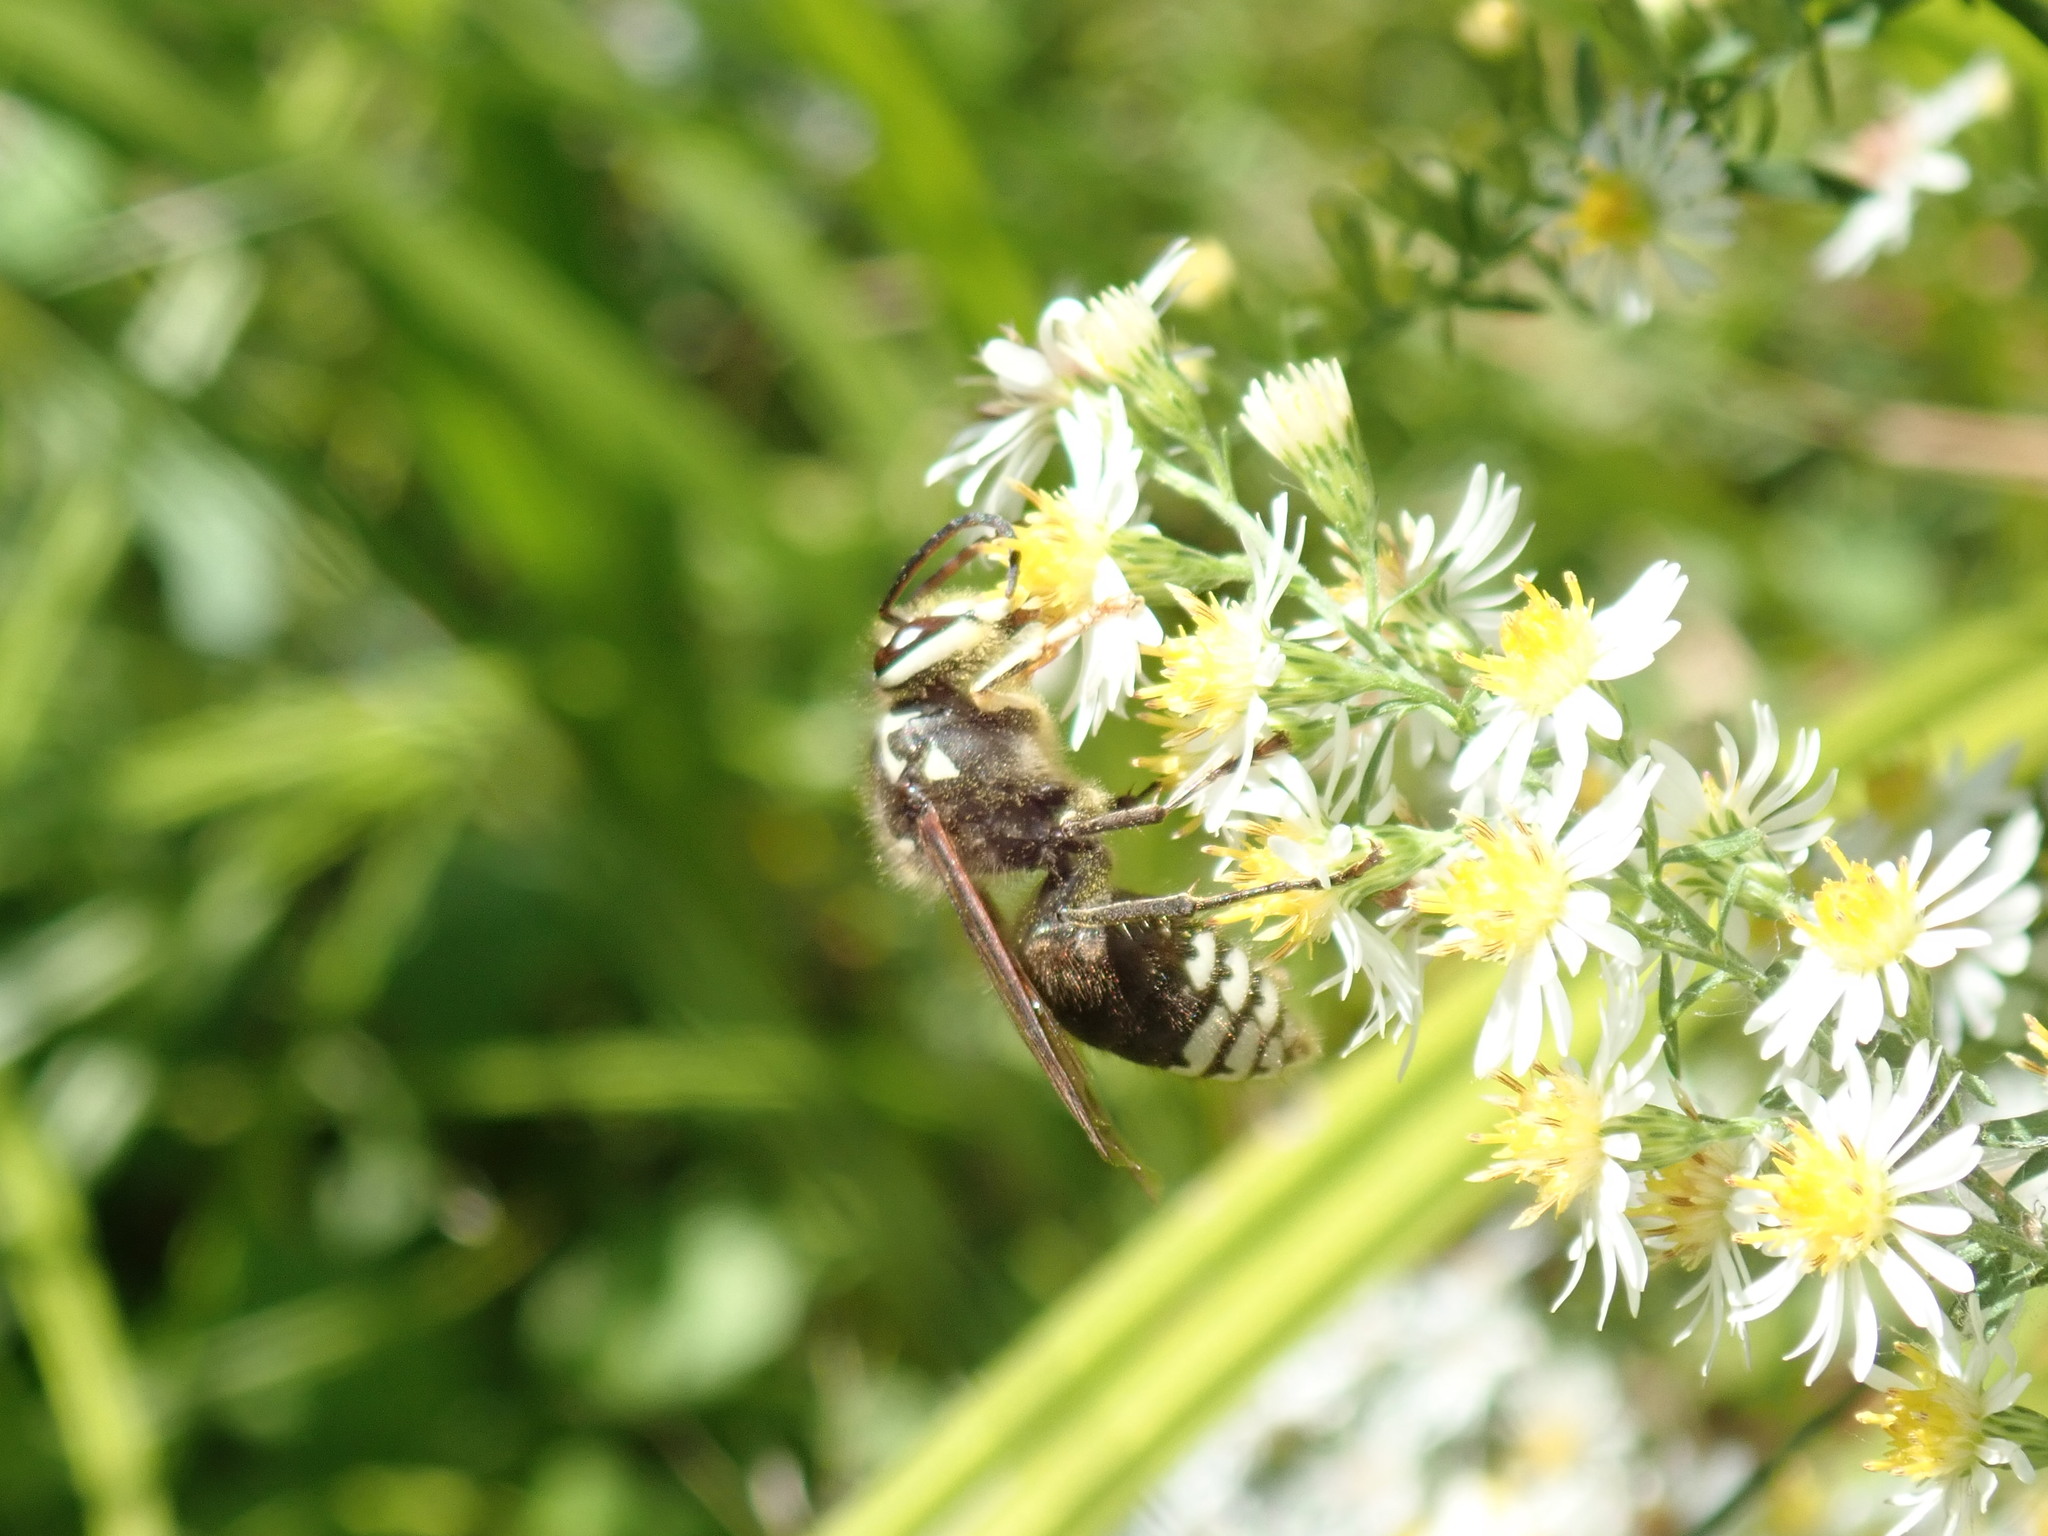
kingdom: Animalia
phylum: Arthropoda
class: Insecta
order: Hymenoptera
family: Vespidae
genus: Dolichovespula
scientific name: Dolichovespula maculata
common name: Bald-faced hornet
